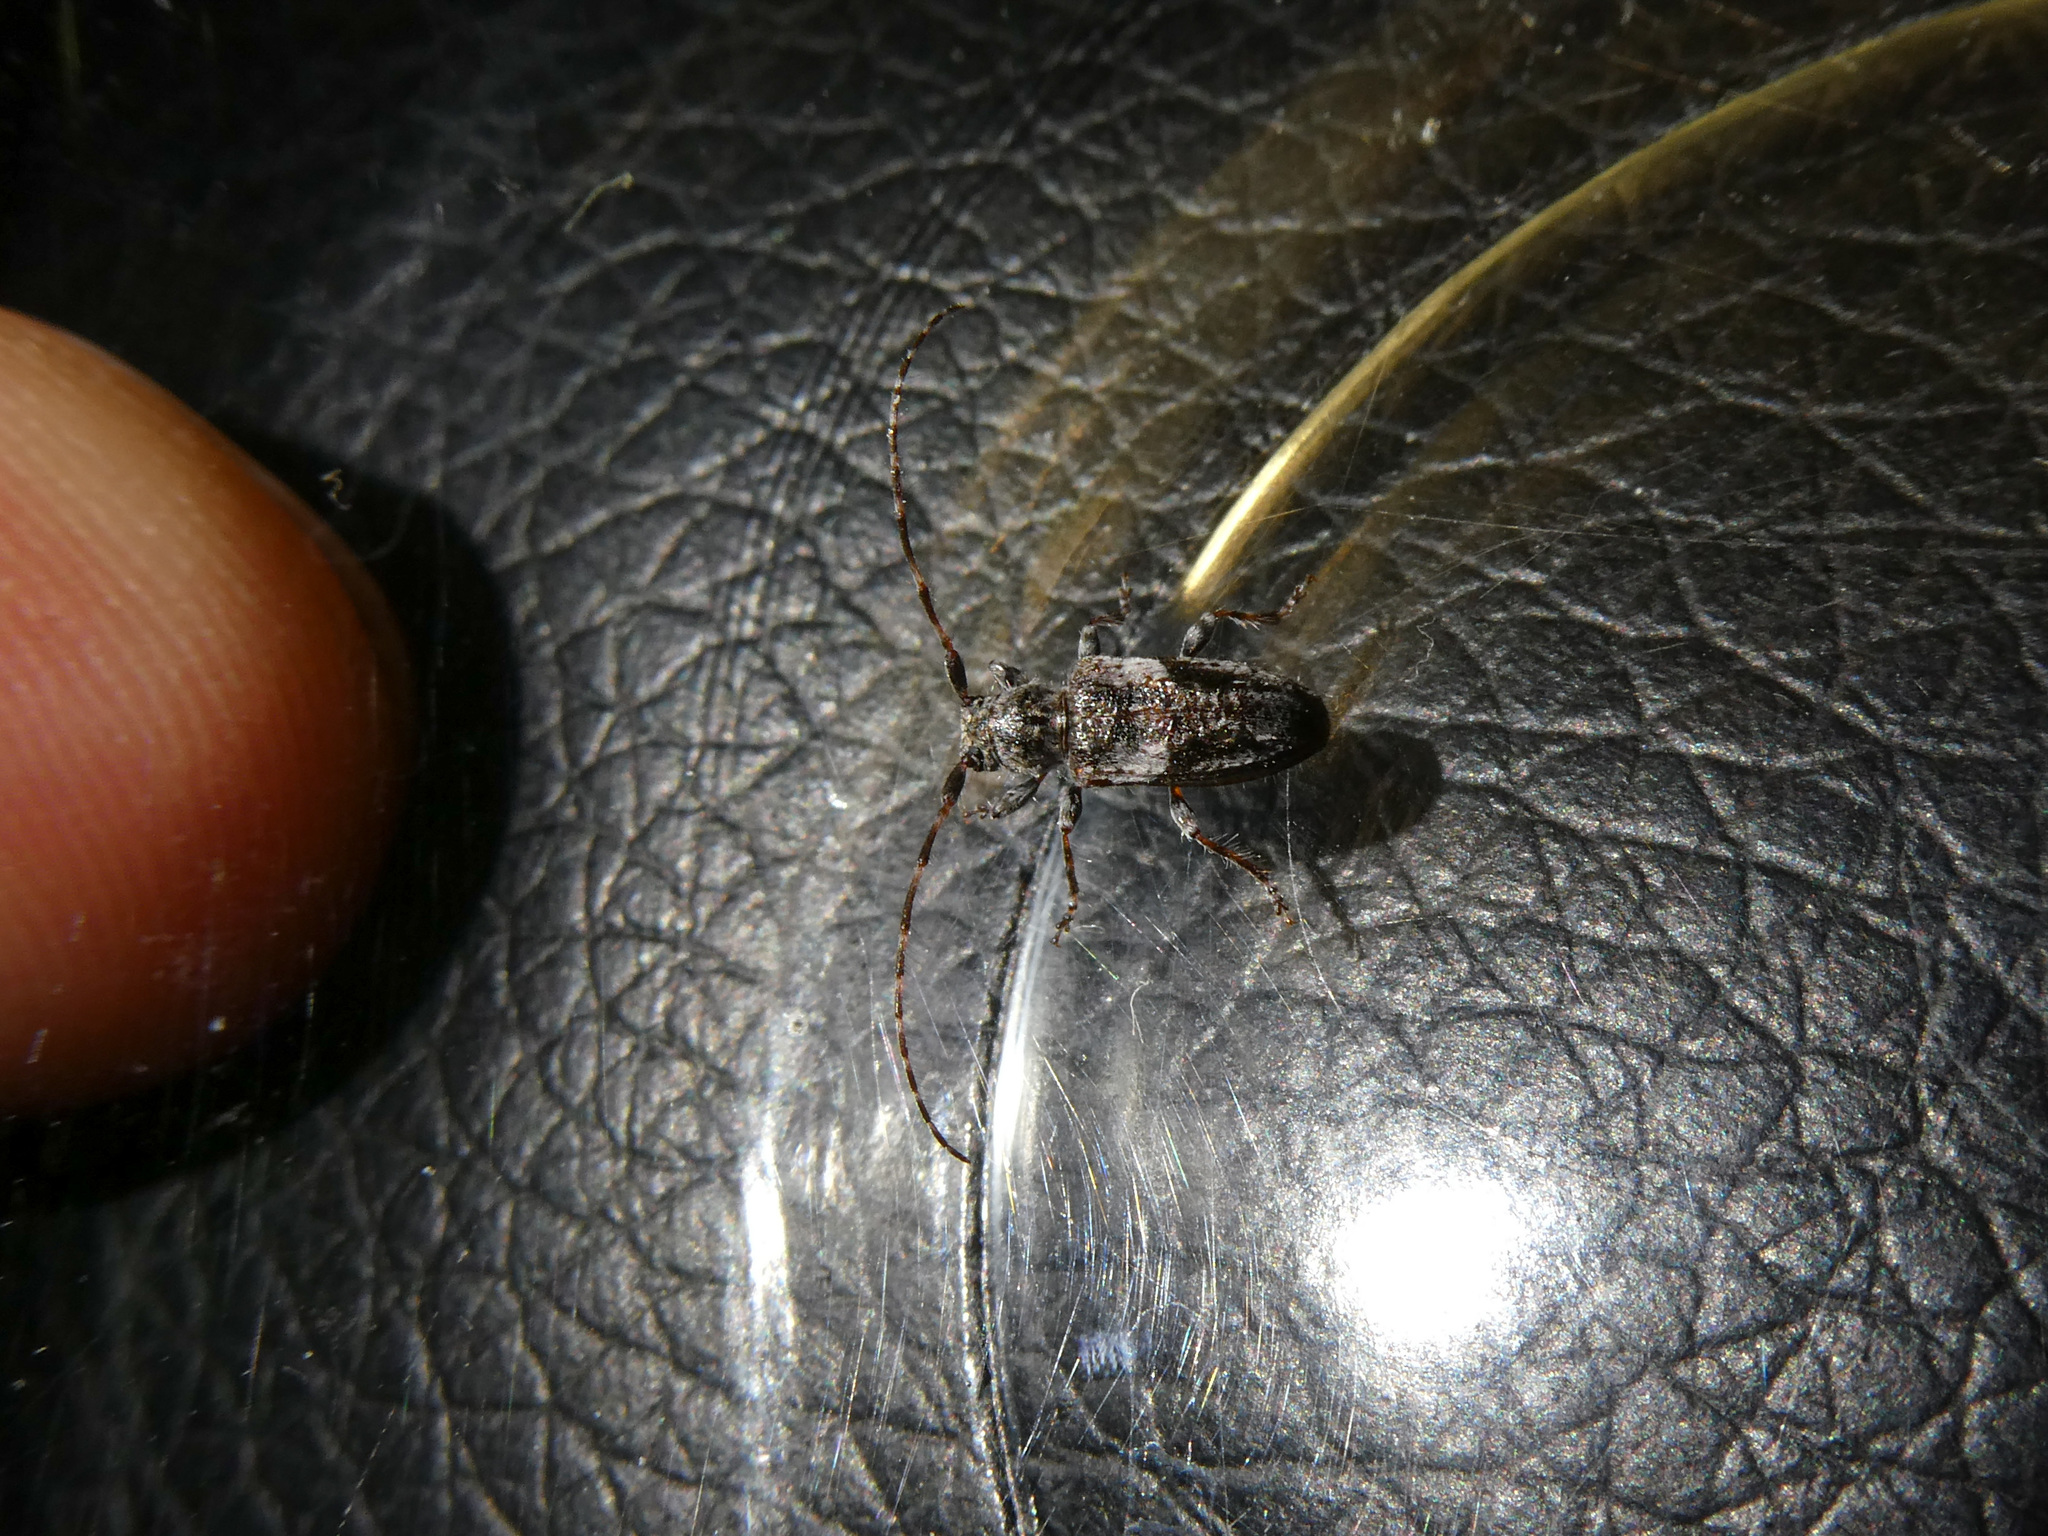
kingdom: Animalia
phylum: Arthropoda
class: Insecta
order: Coleoptera
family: Cerambycidae
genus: Pogonocherus
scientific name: Pogonocherus decoratus
